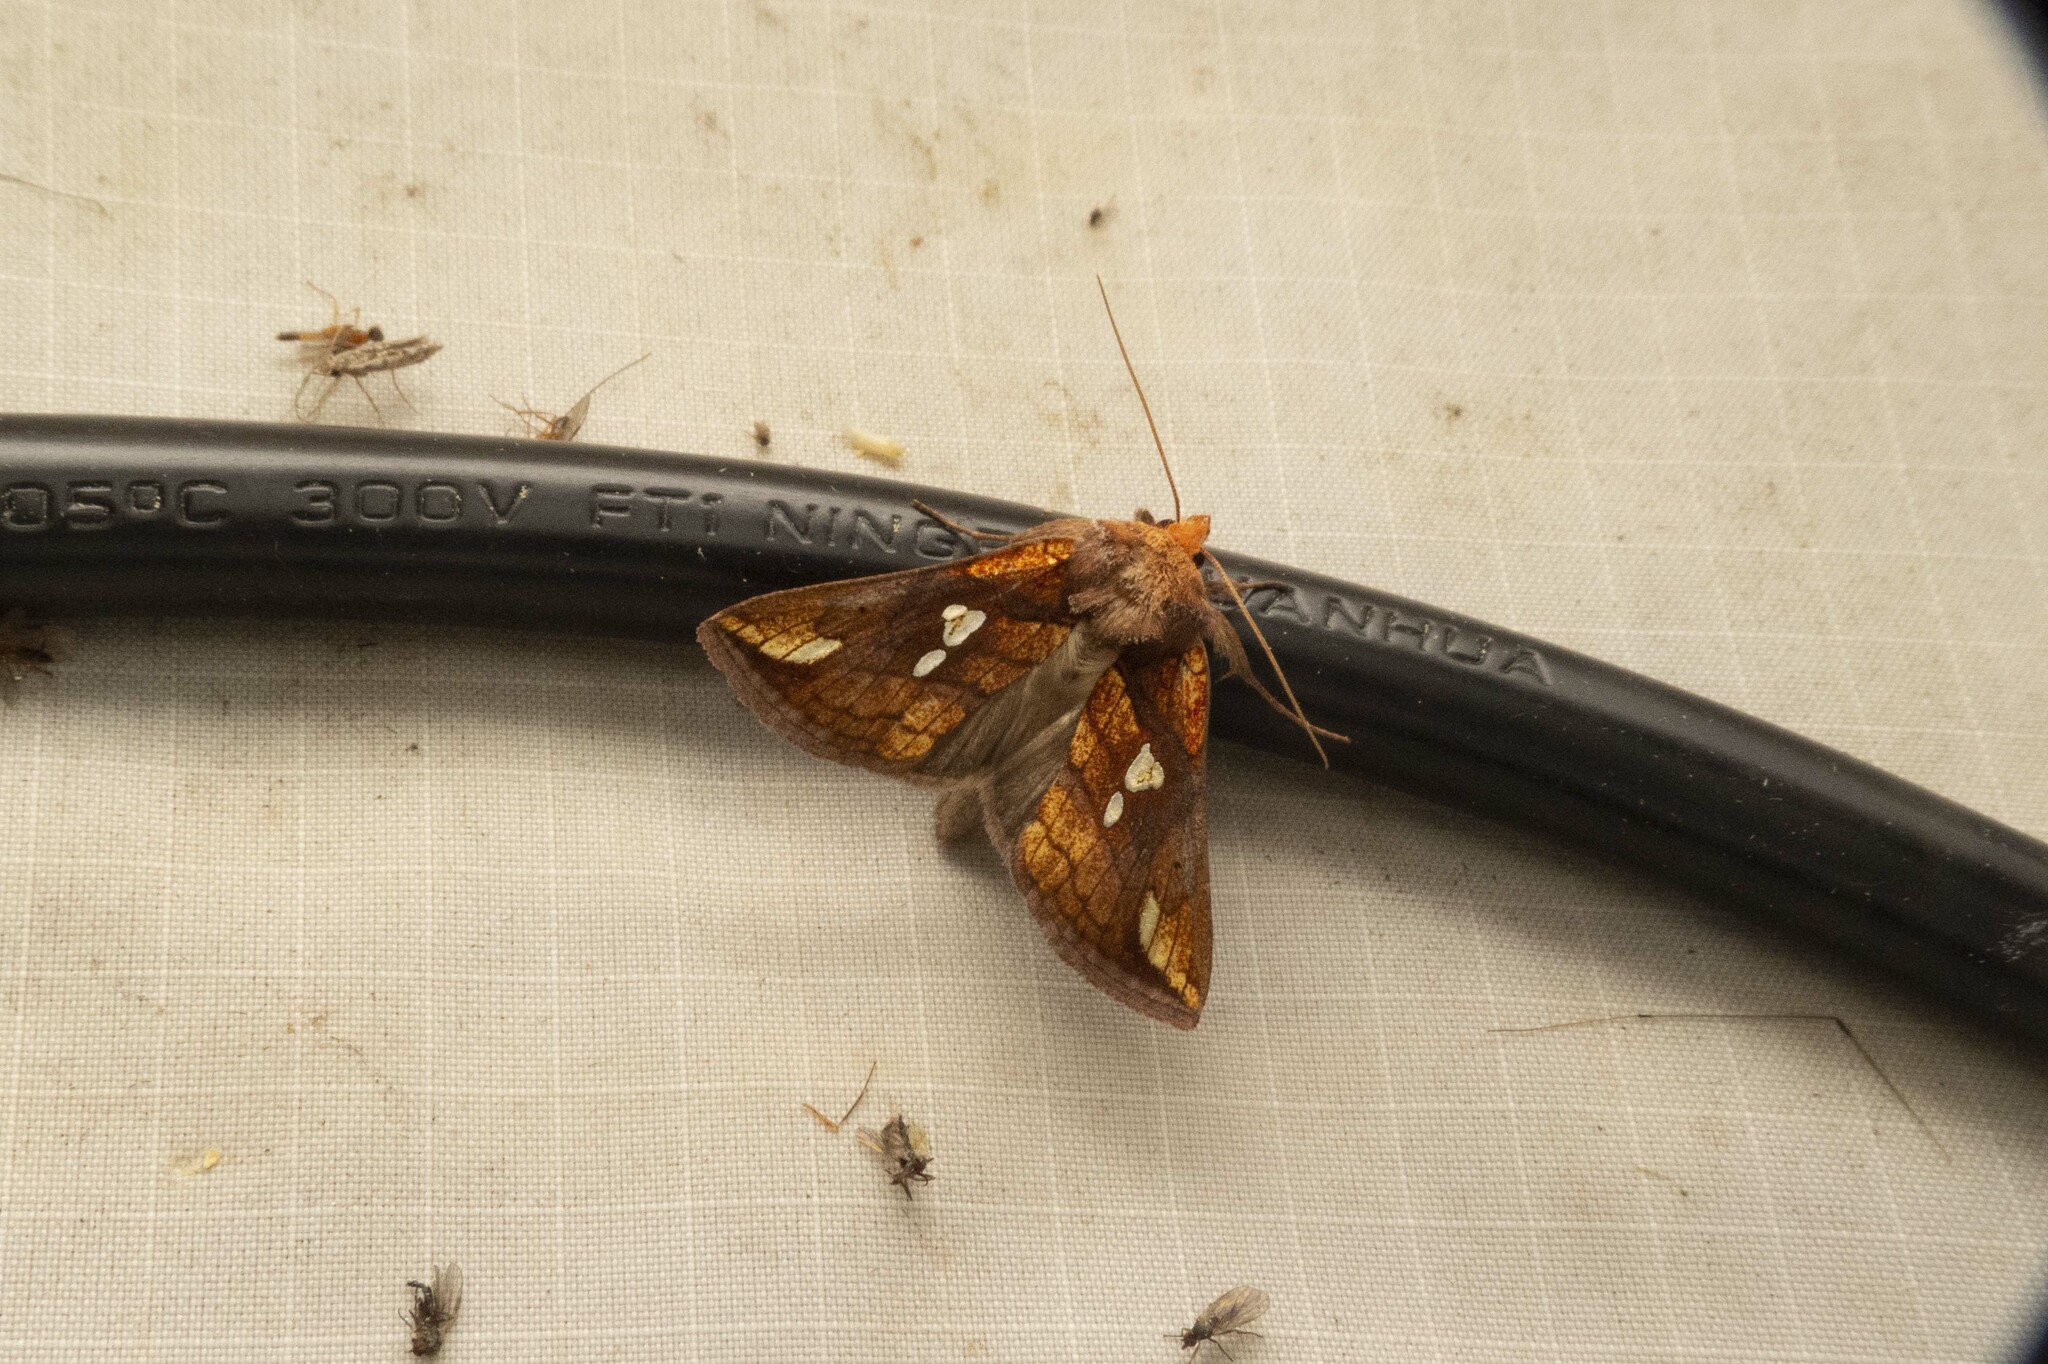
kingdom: Animalia
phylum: Arthropoda
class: Insecta
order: Lepidoptera
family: Noctuidae
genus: Plusia
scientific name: Plusia putnami
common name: Lempke's gold spot
